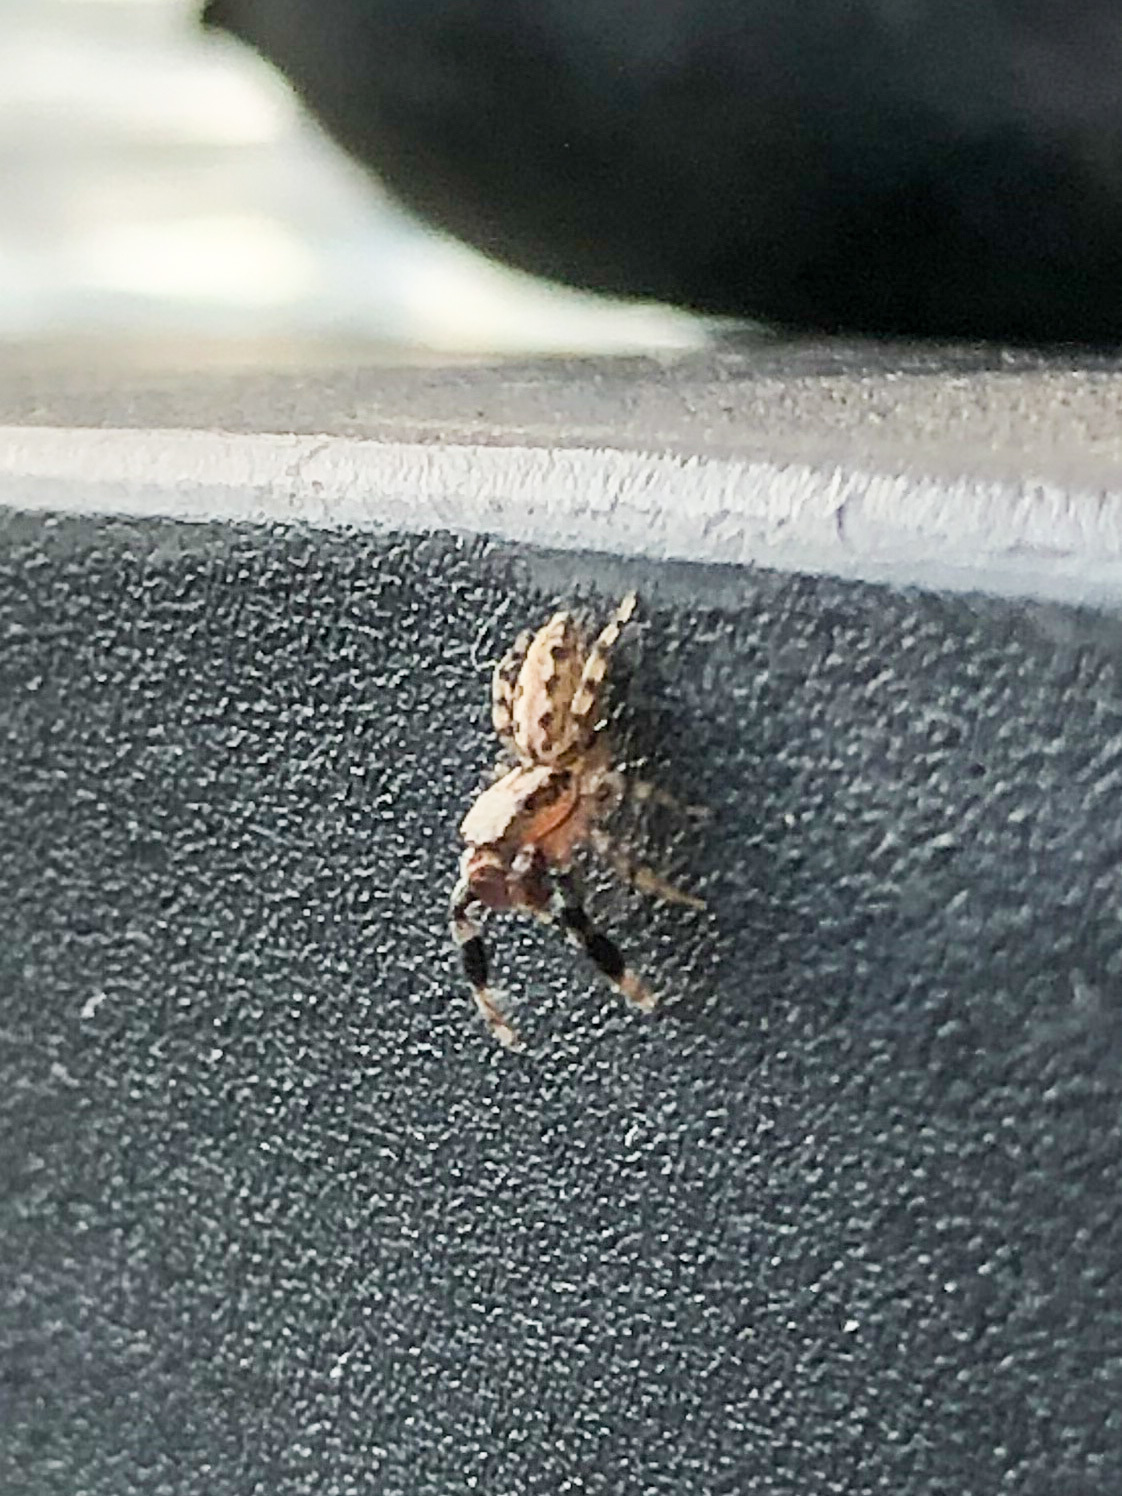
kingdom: Animalia
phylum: Arthropoda
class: Arachnida
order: Araneae
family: Salticidae
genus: Marpissa
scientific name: Marpissa obtusa
